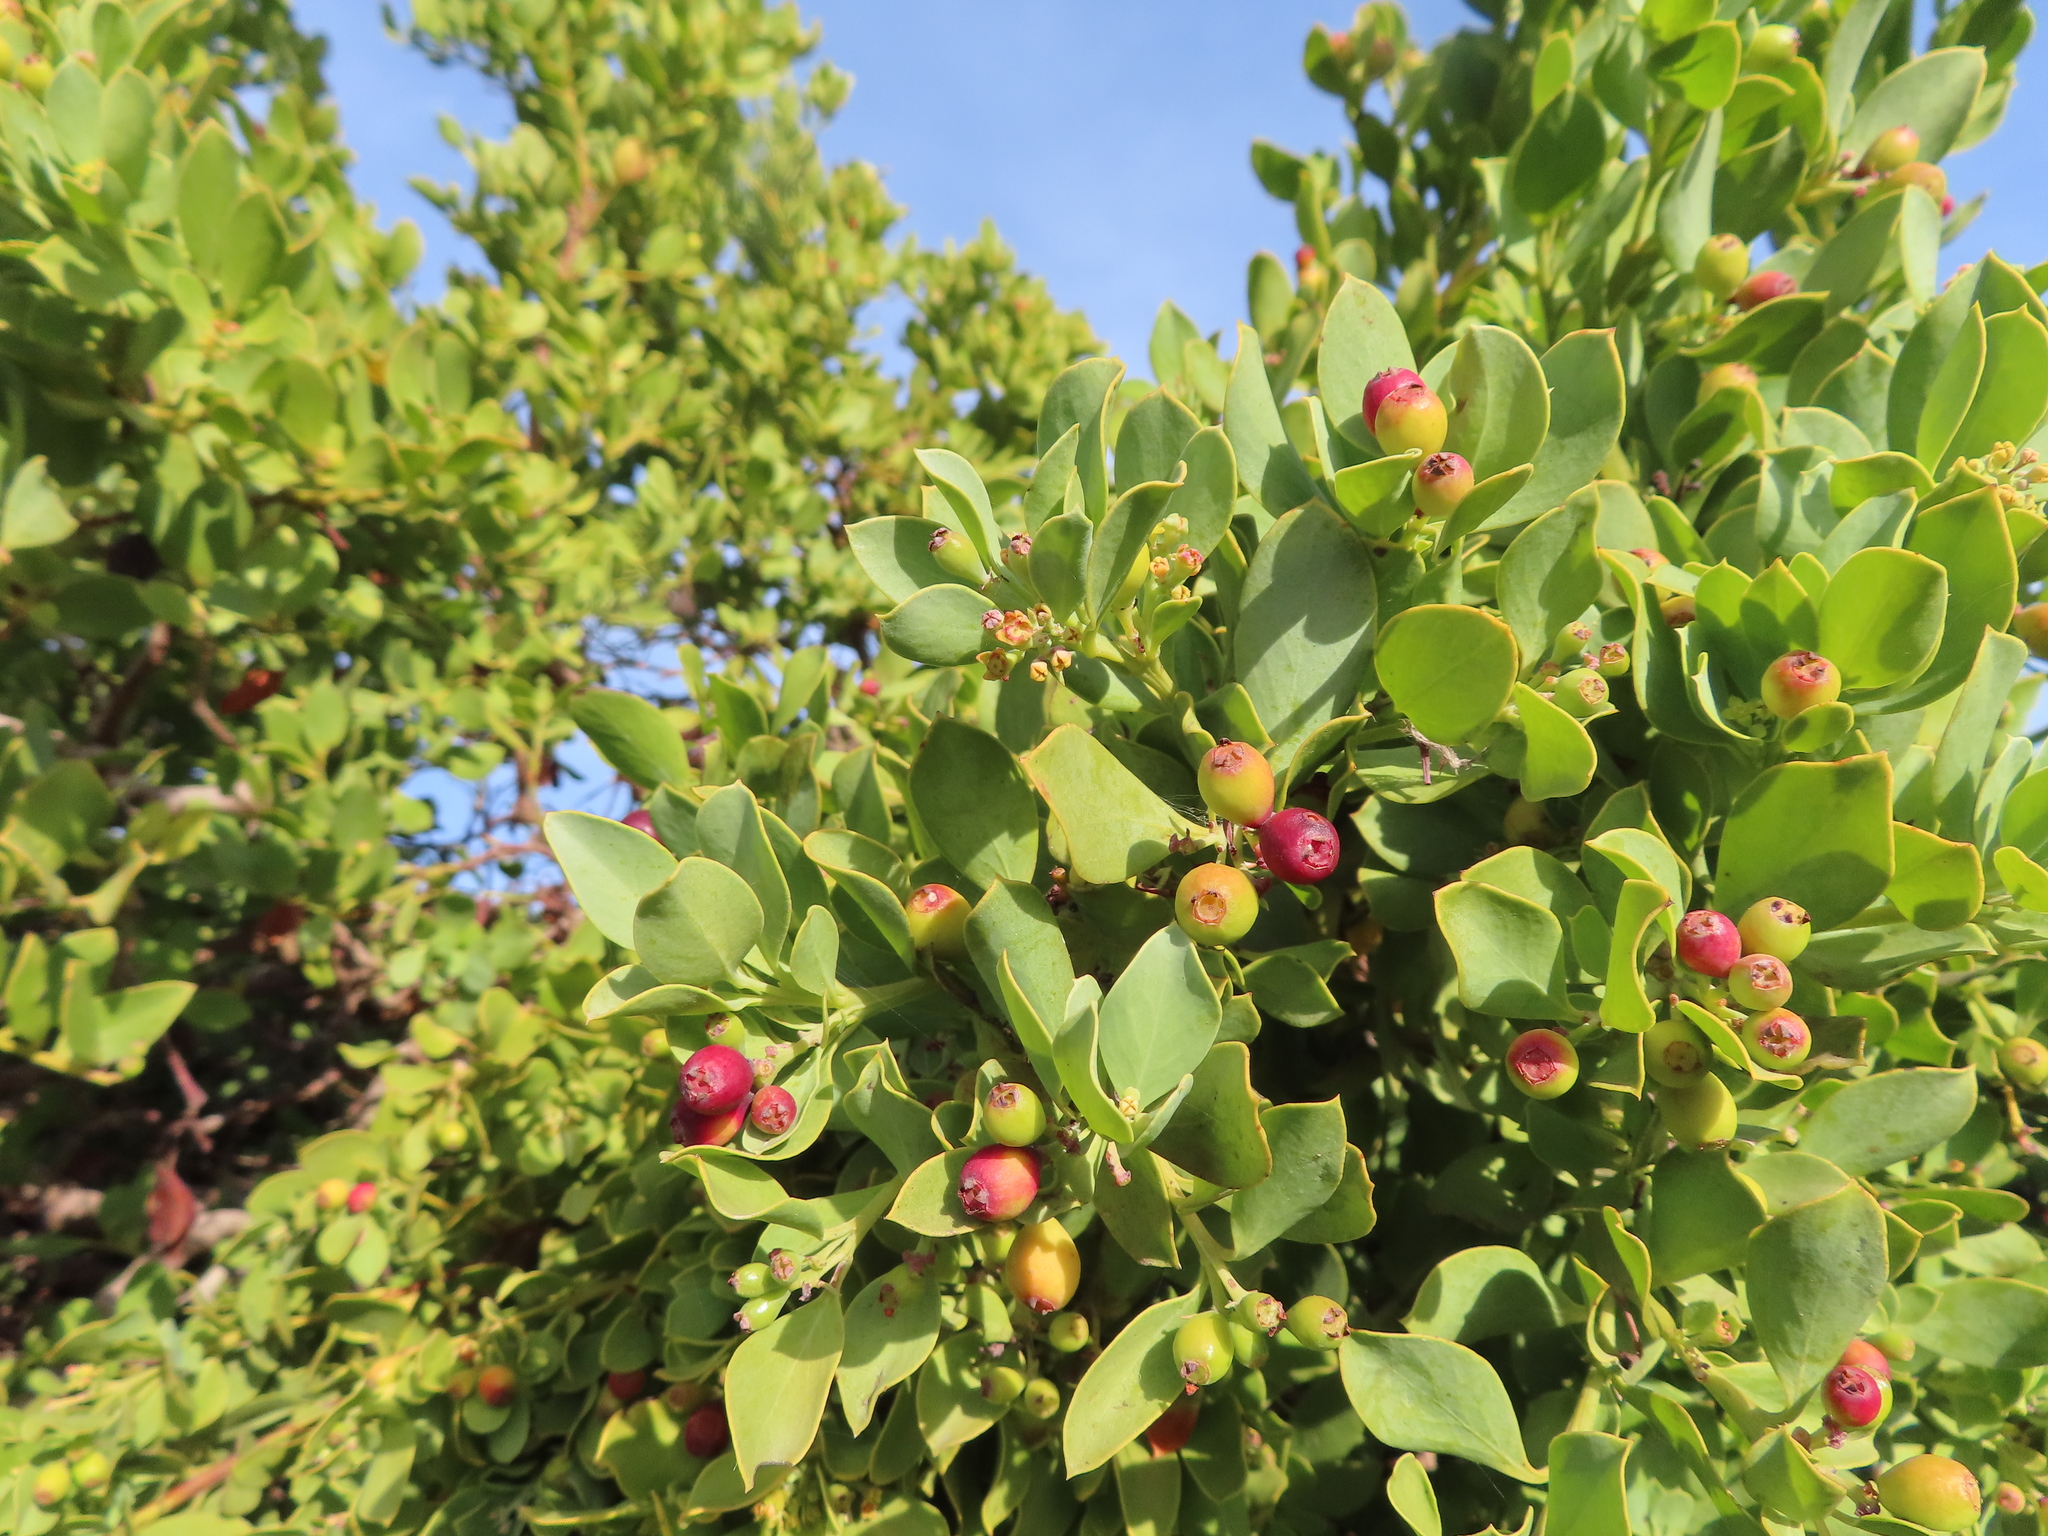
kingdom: Plantae
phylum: Tracheophyta
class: Magnoliopsida
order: Santalales
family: Santalaceae
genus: Osyris
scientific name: Osyris compressa
